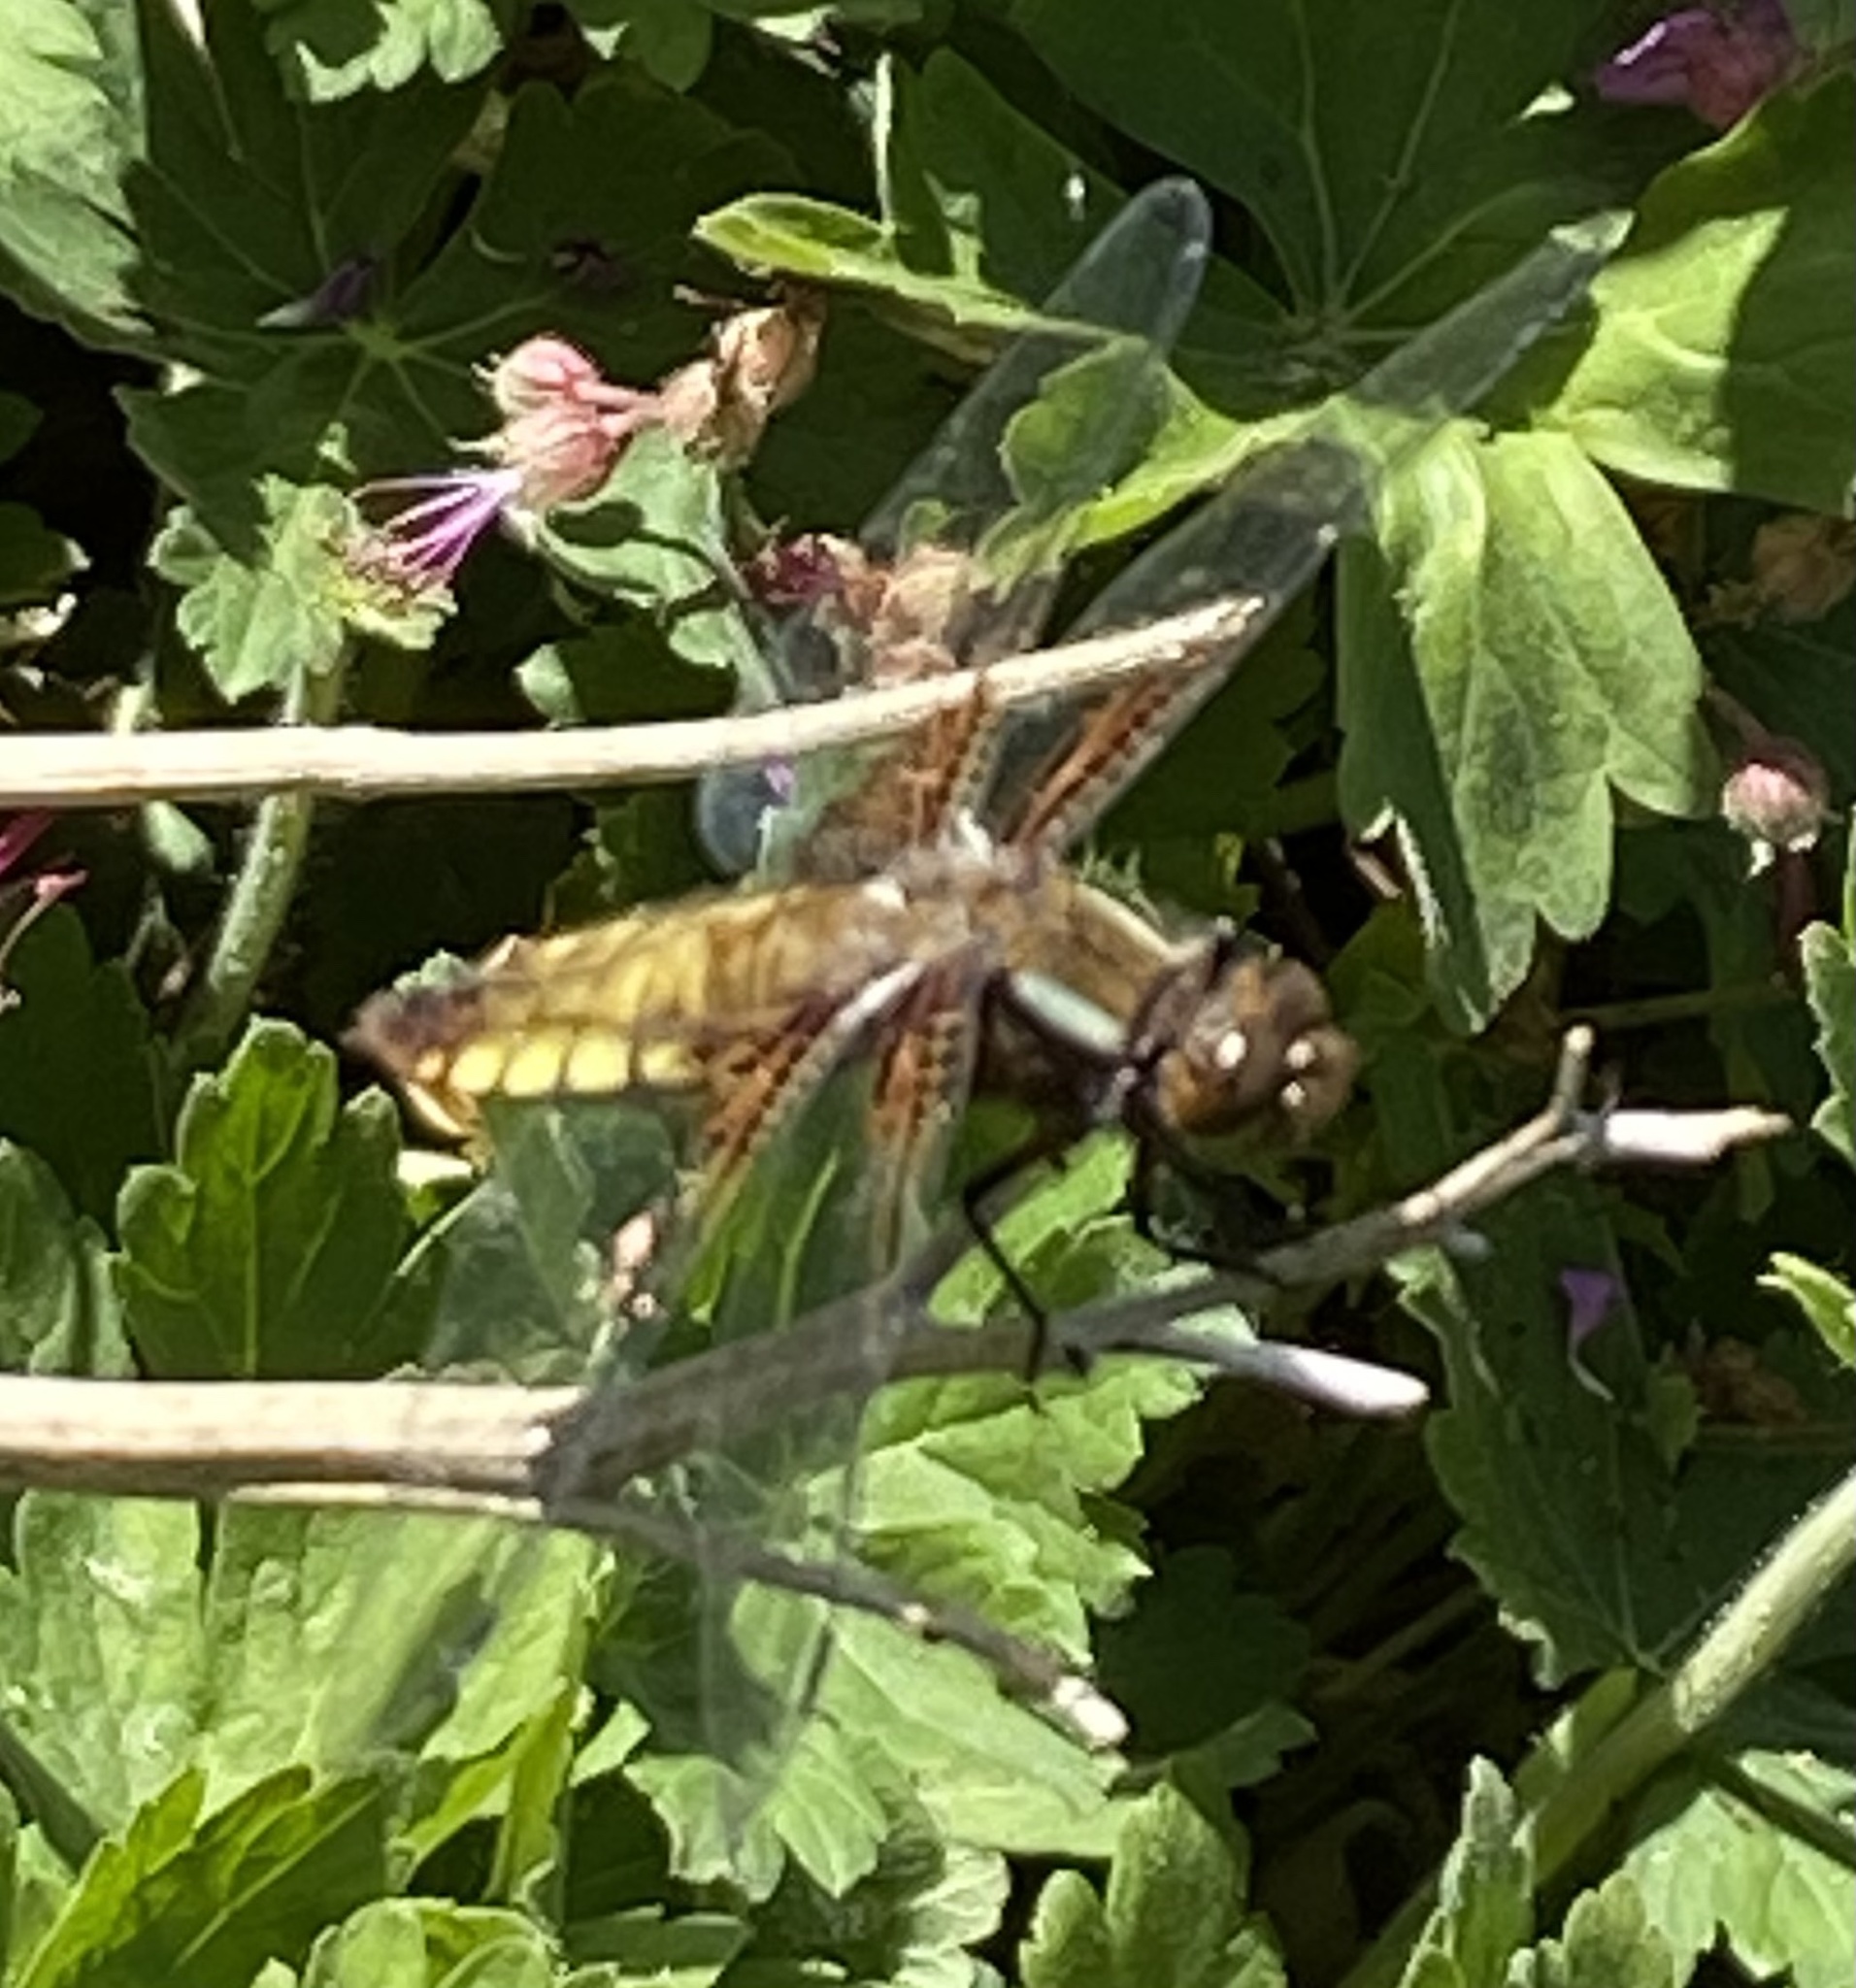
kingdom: Animalia
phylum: Arthropoda
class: Insecta
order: Odonata
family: Libellulidae
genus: Libellula
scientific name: Libellula depressa
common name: Broad-bodied chaser
